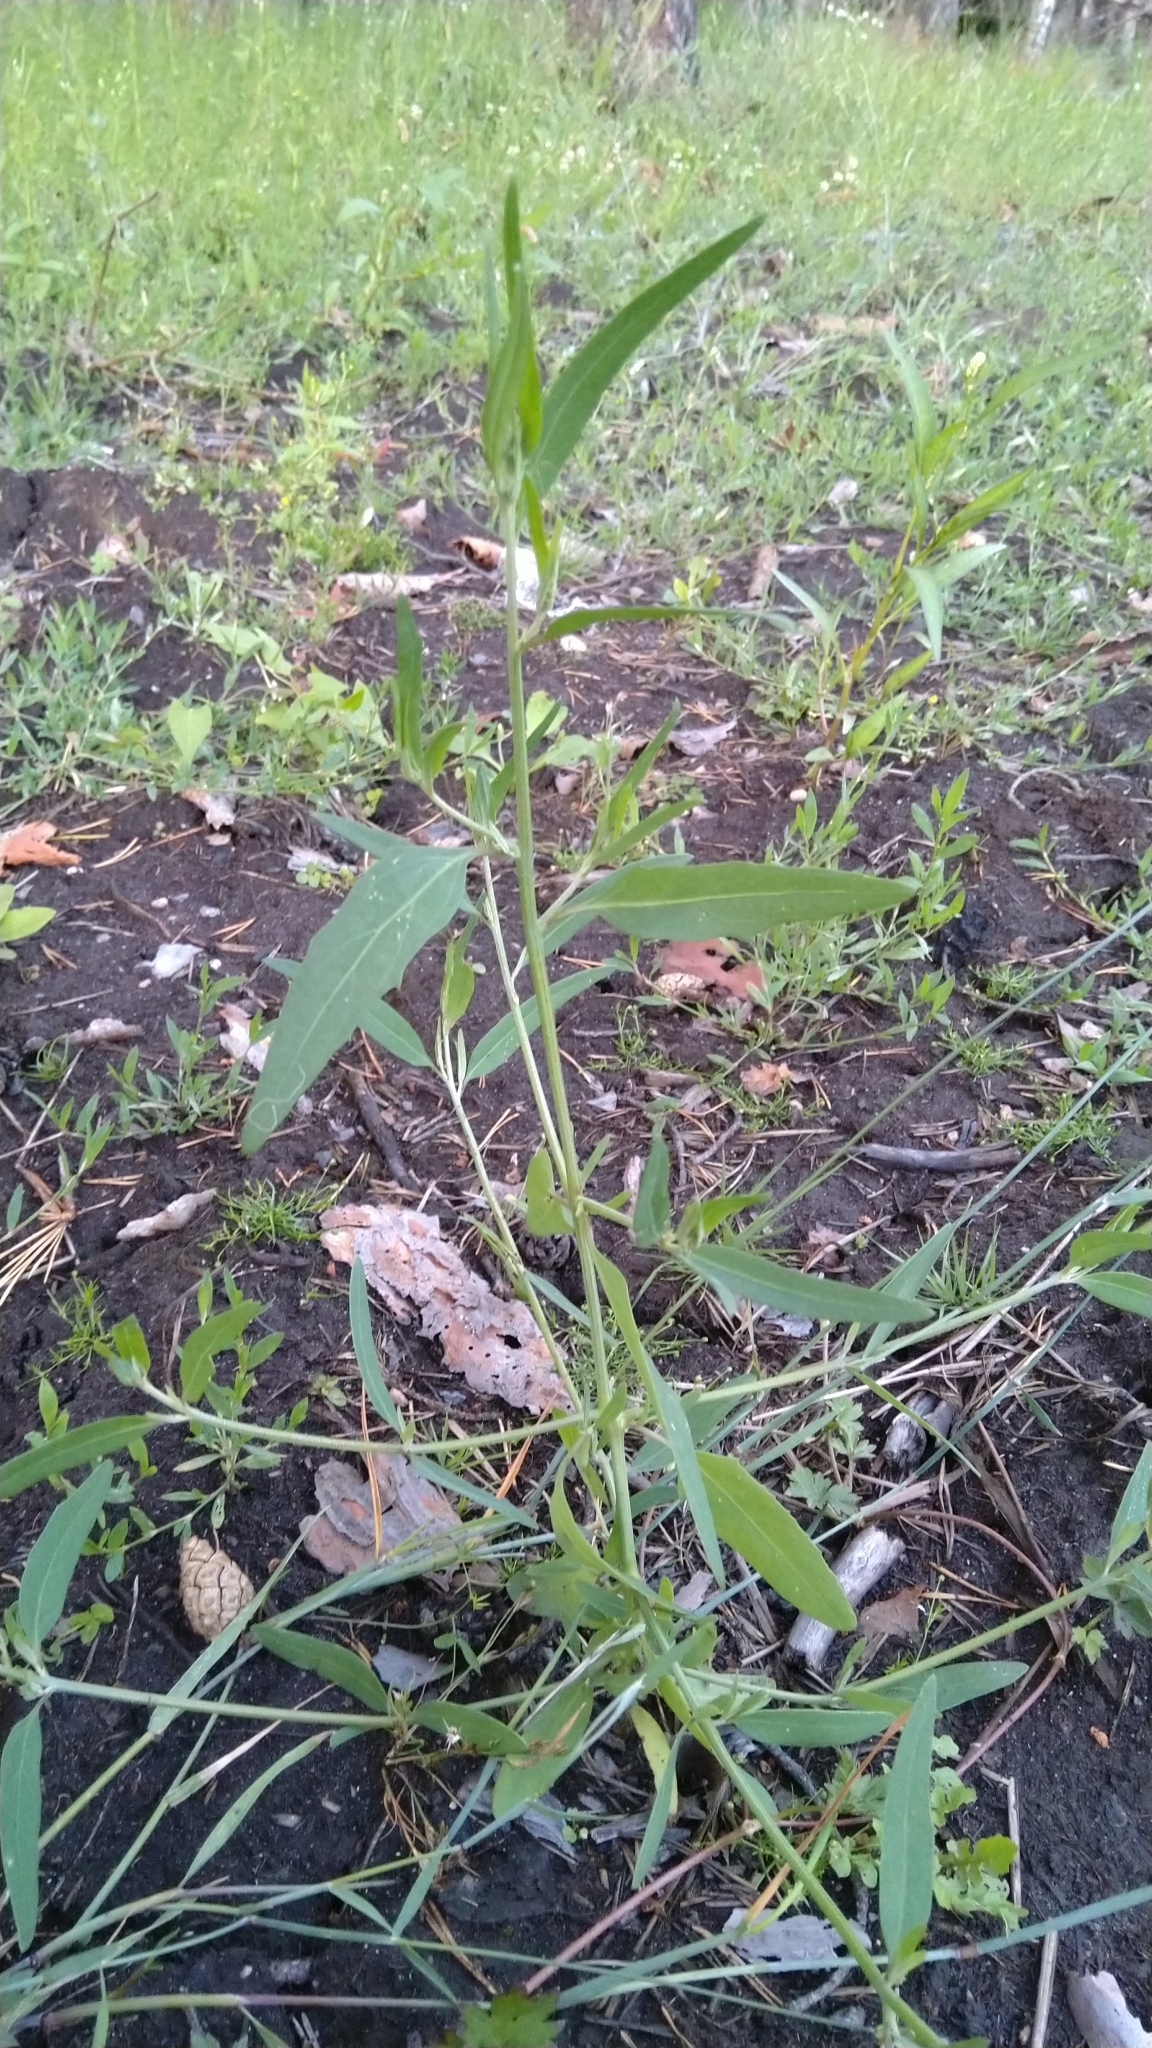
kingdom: Plantae
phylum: Tracheophyta
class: Magnoliopsida
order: Caryophyllales
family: Amaranthaceae
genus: Atriplex
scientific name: Atriplex patula
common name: Common orache
